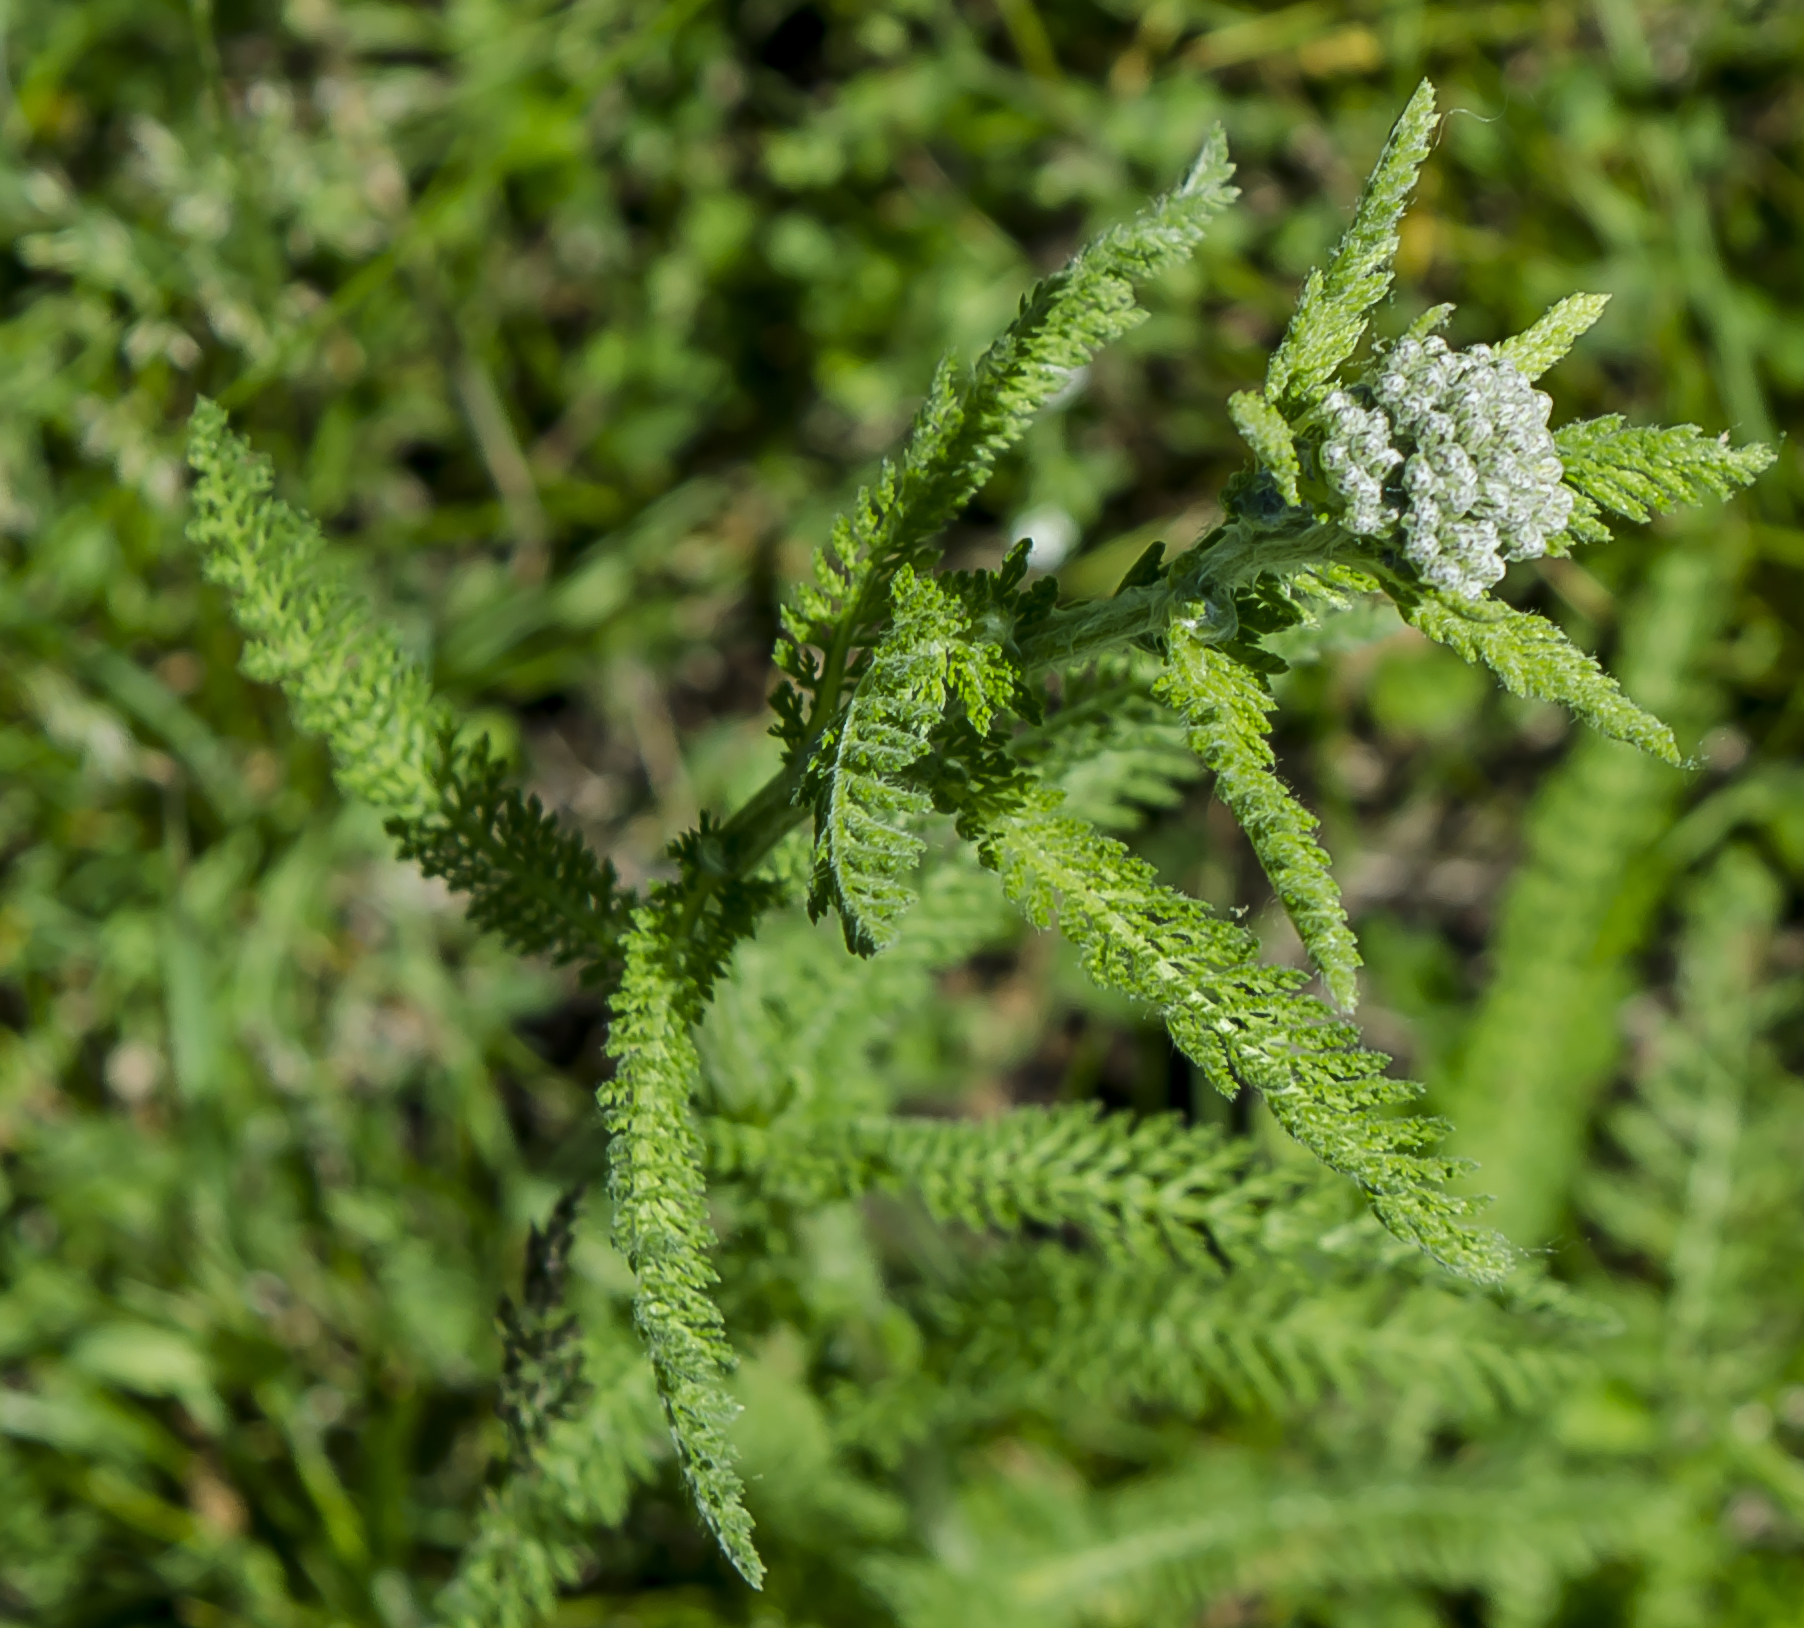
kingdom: Plantae
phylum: Tracheophyta
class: Magnoliopsida
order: Asterales
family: Asteraceae
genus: Achillea
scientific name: Achillea millefolium
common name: Yarrow
